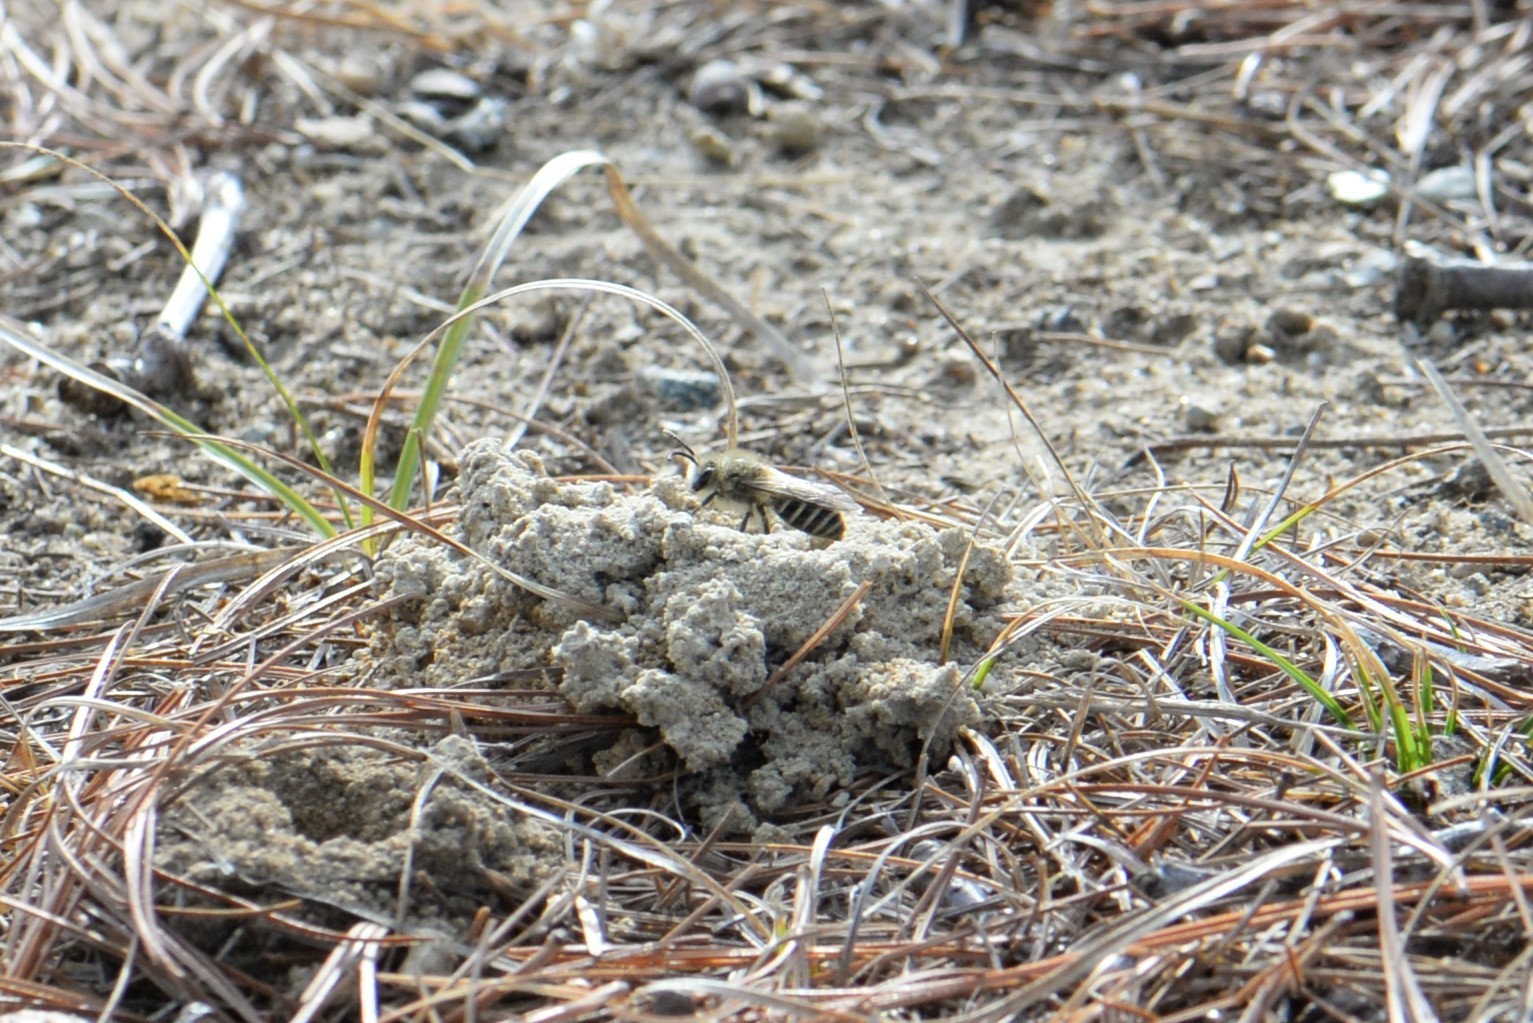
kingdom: Animalia
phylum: Arthropoda
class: Insecta
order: Hymenoptera
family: Colletidae
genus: Colletes
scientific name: Colletes inaequalis
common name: Unequal cellophane bee
